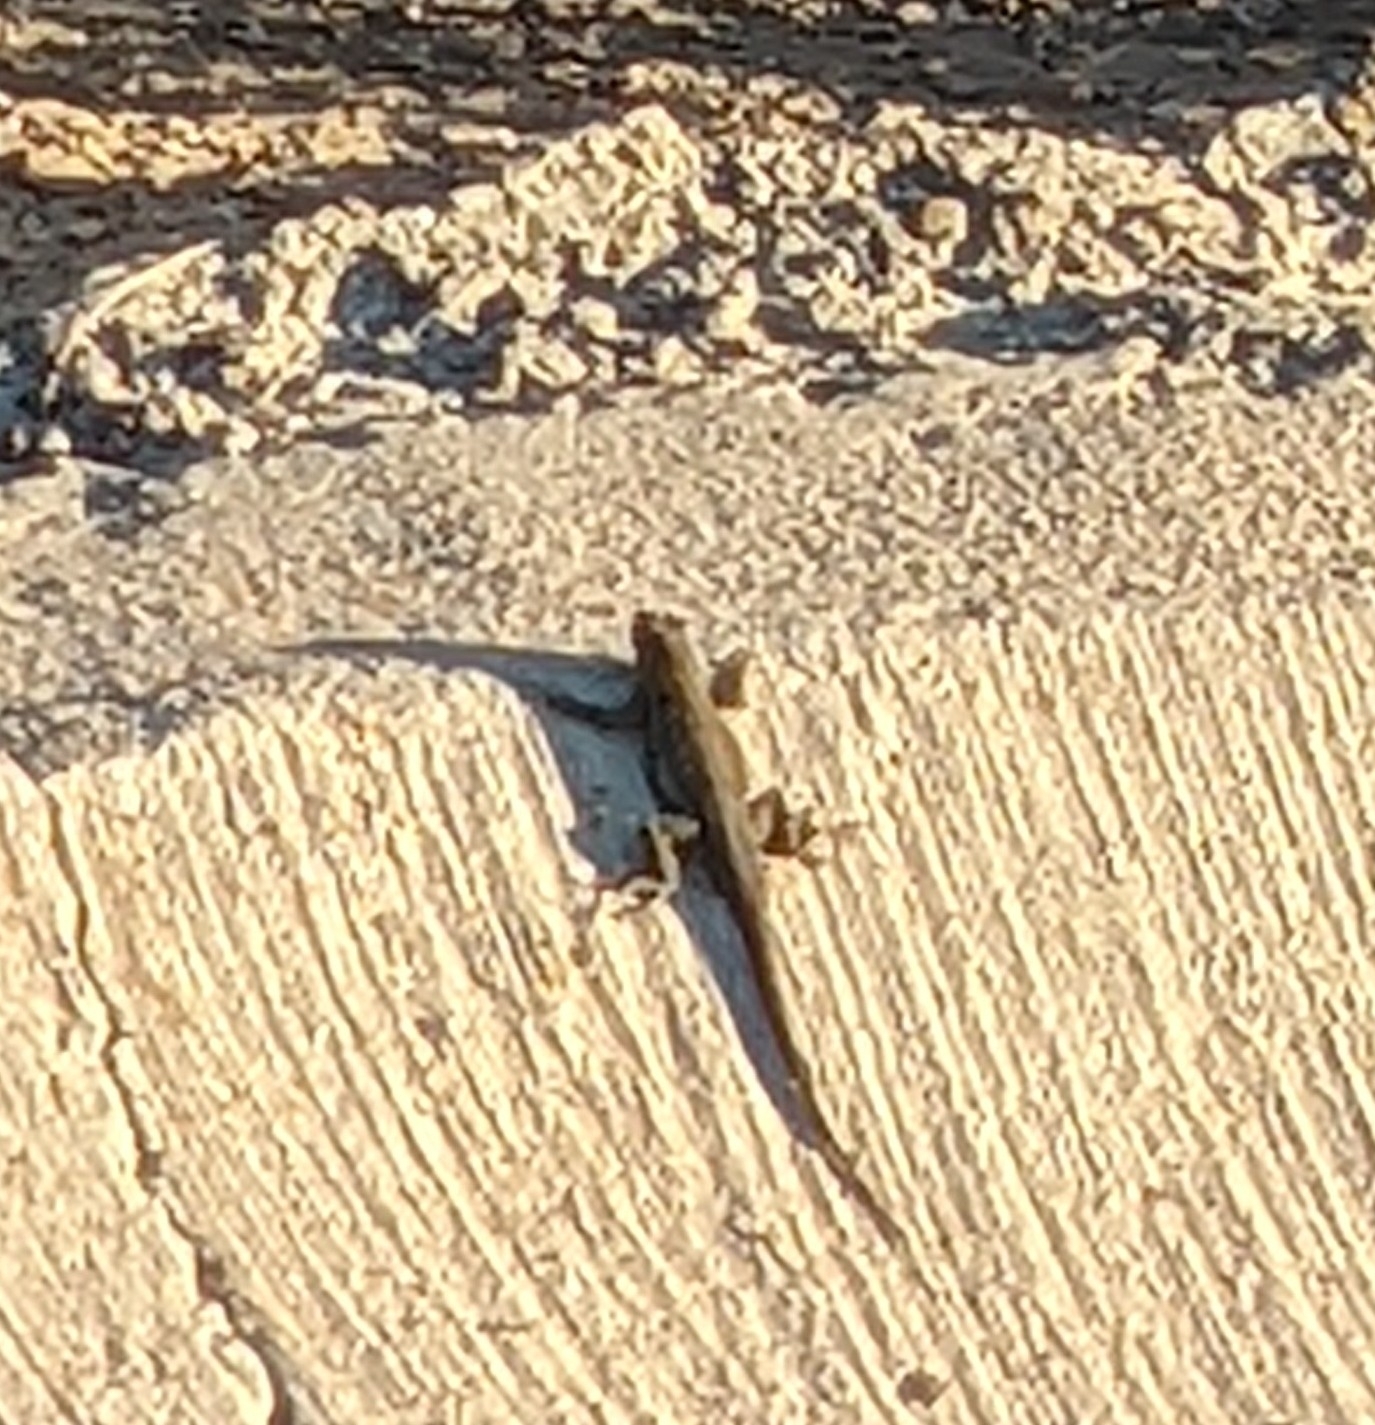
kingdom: Animalia
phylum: Chordata
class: Squamata
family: Phrynosomatidae
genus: Sceloporus
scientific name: Sceloporus occidentalis
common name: Western fence lizard
